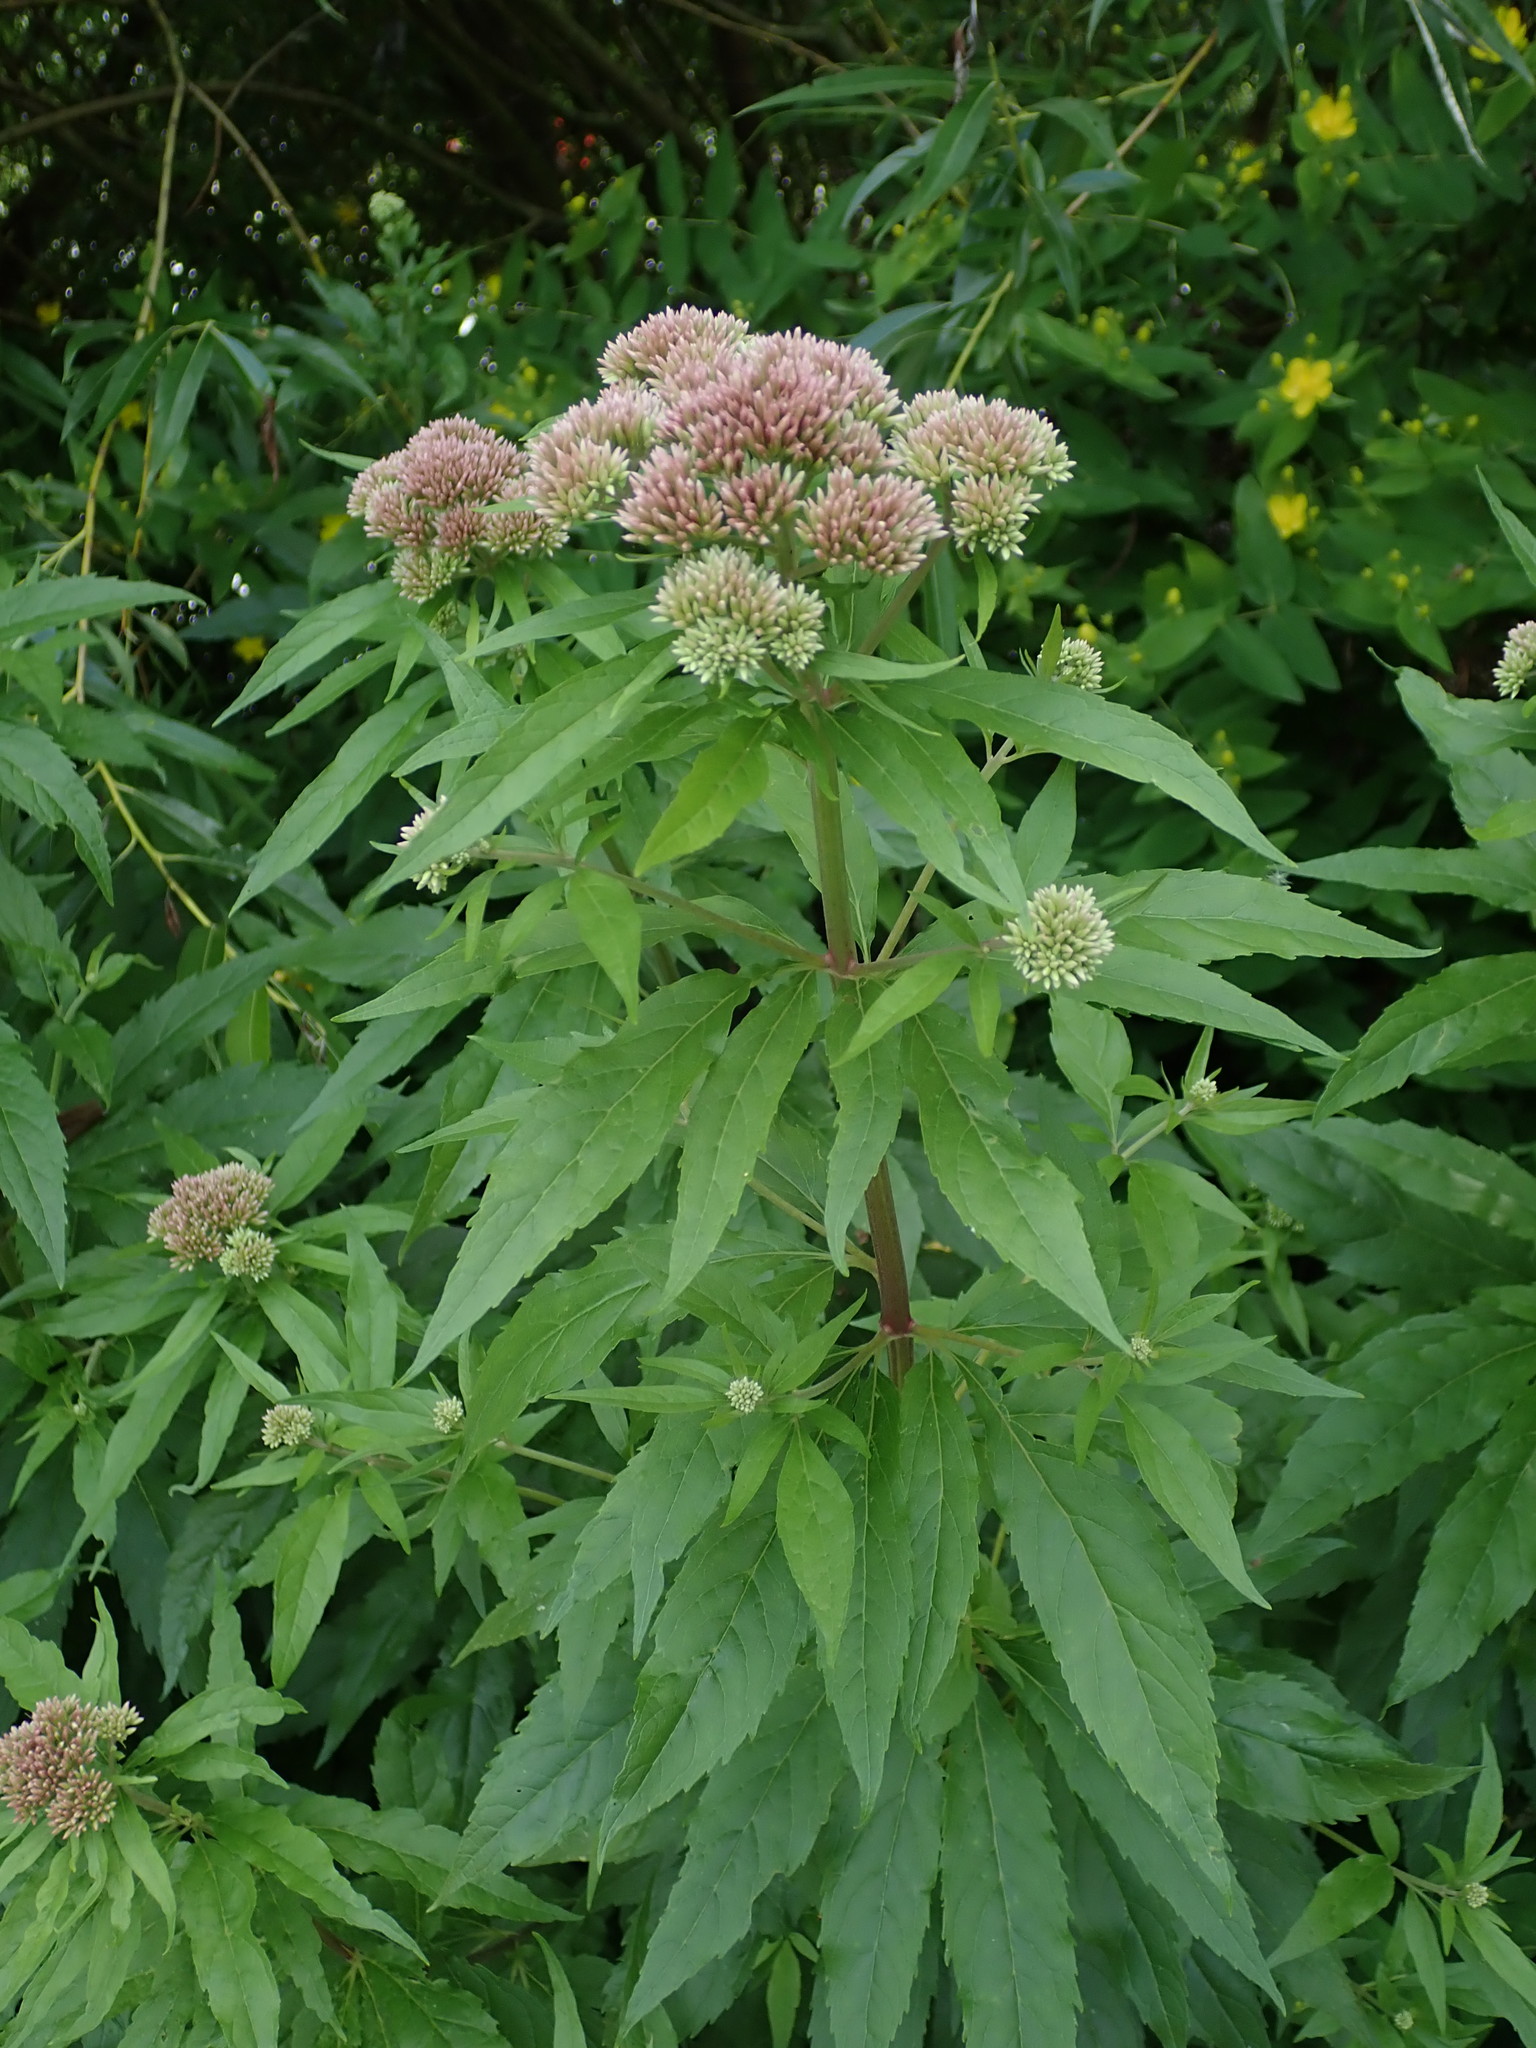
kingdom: Plantae
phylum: Tracheophyta
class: Magnoliopsida
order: Asterales
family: Asteraceae
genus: Eupatorium
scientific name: Eupatorium cannabinum
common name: Hemp-agrimony
